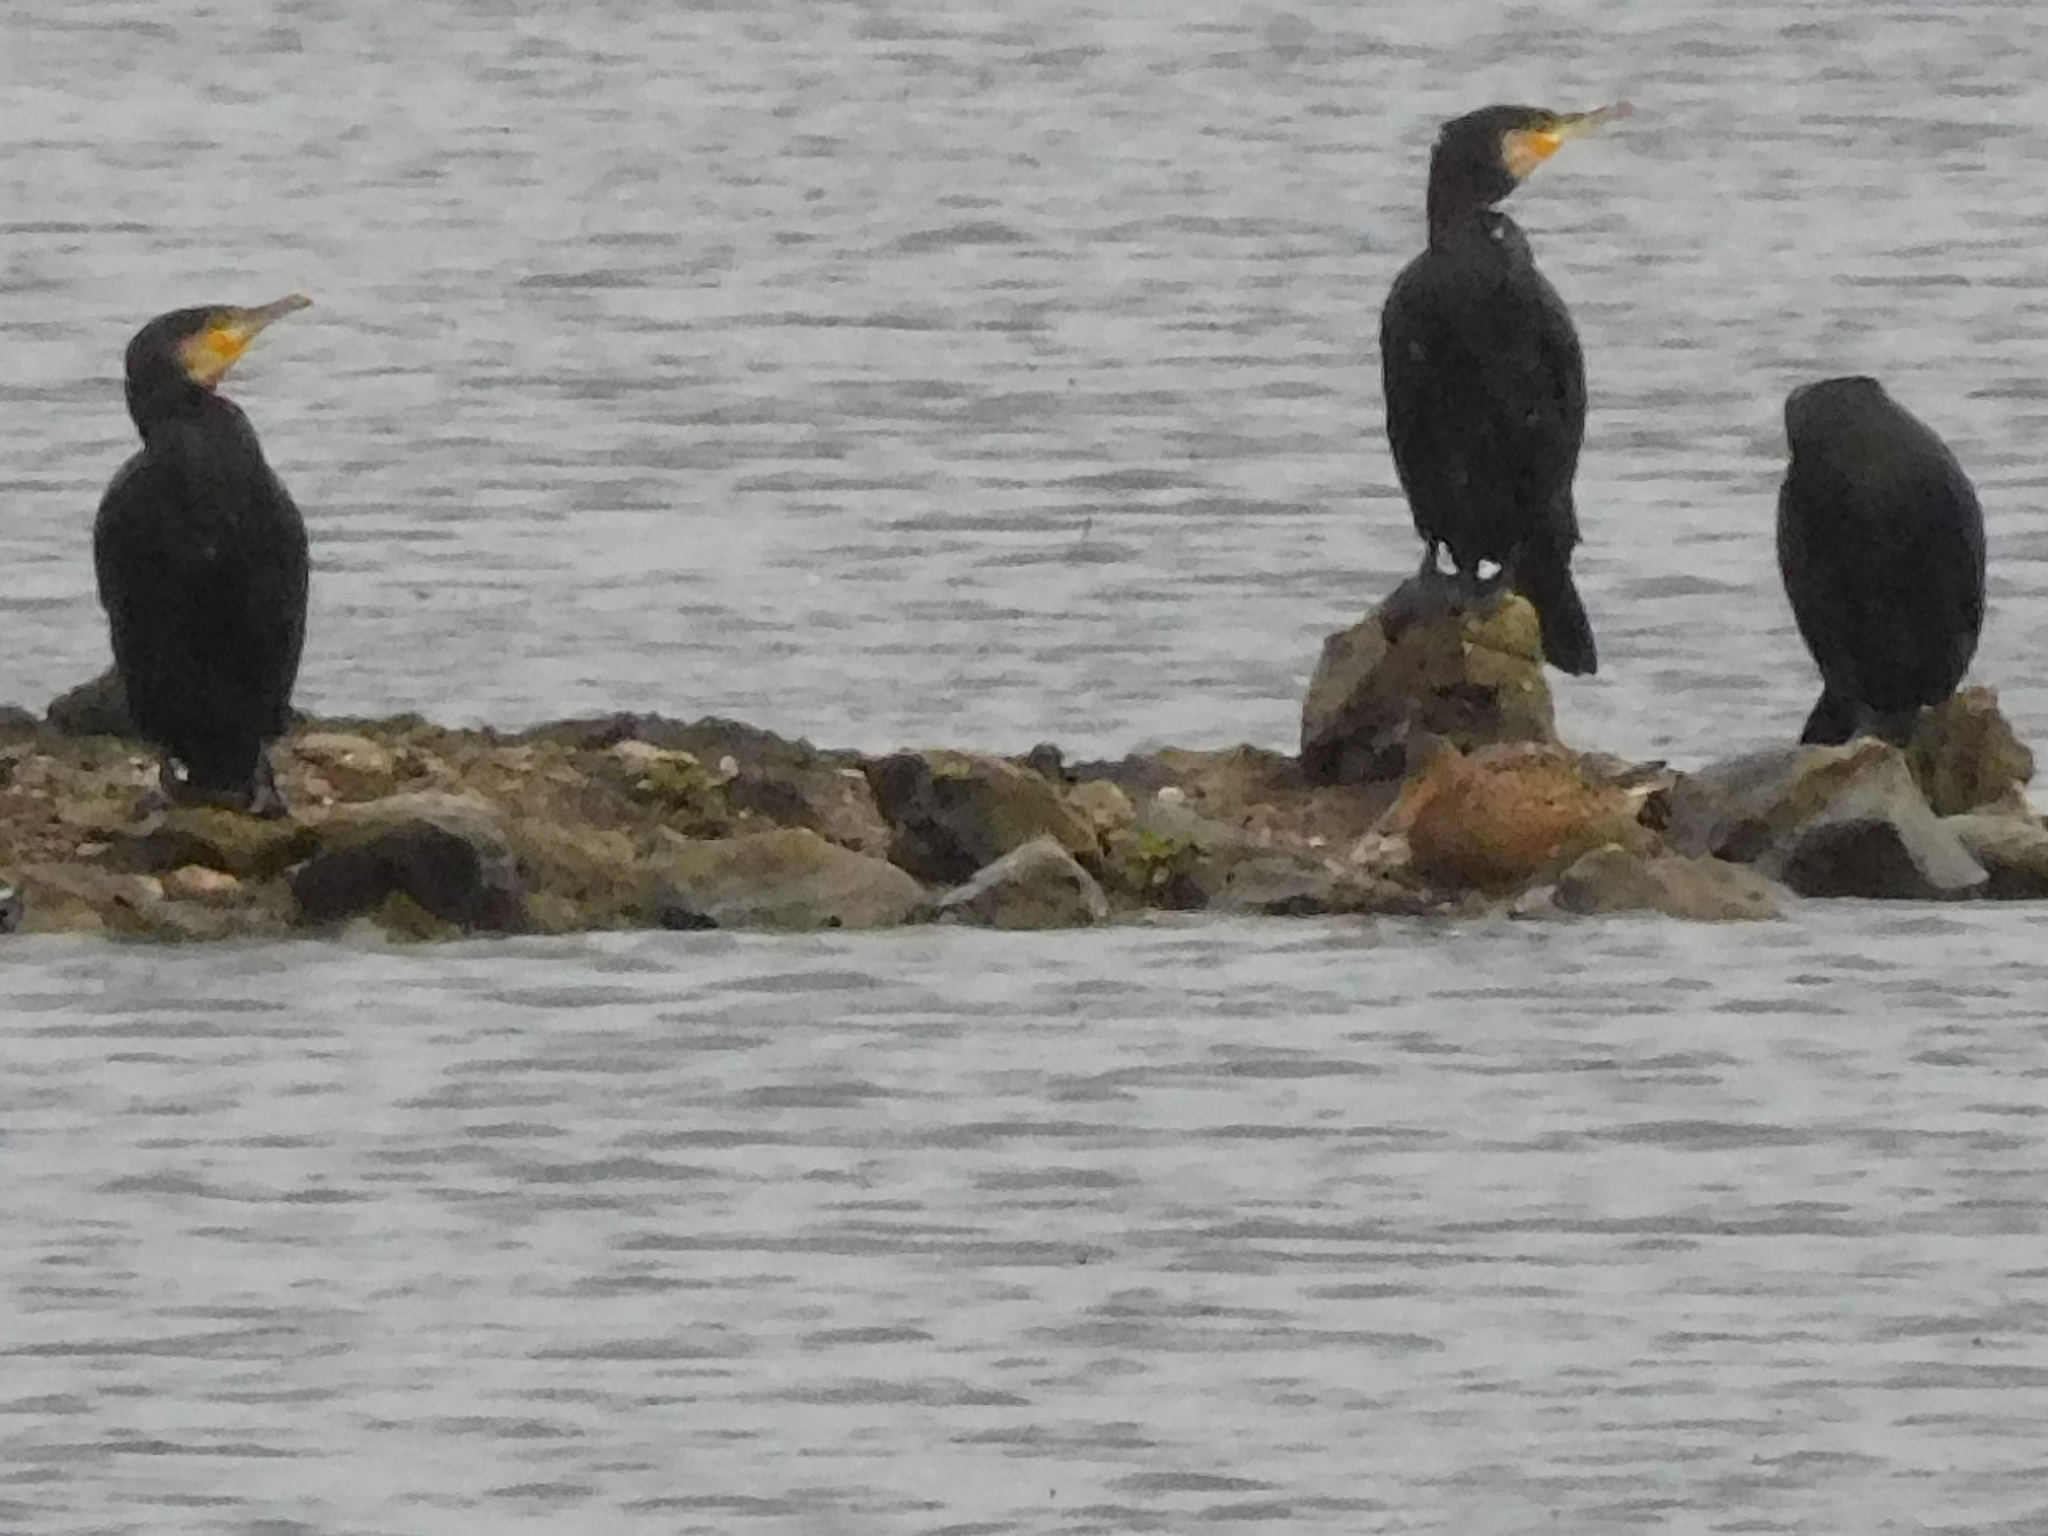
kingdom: Animalia
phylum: Chordata
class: Aves
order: Suliformes
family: Phalacrocoracidae
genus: Phalacrocorax
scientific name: Phalacrocorax carbo
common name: Great cormorant
